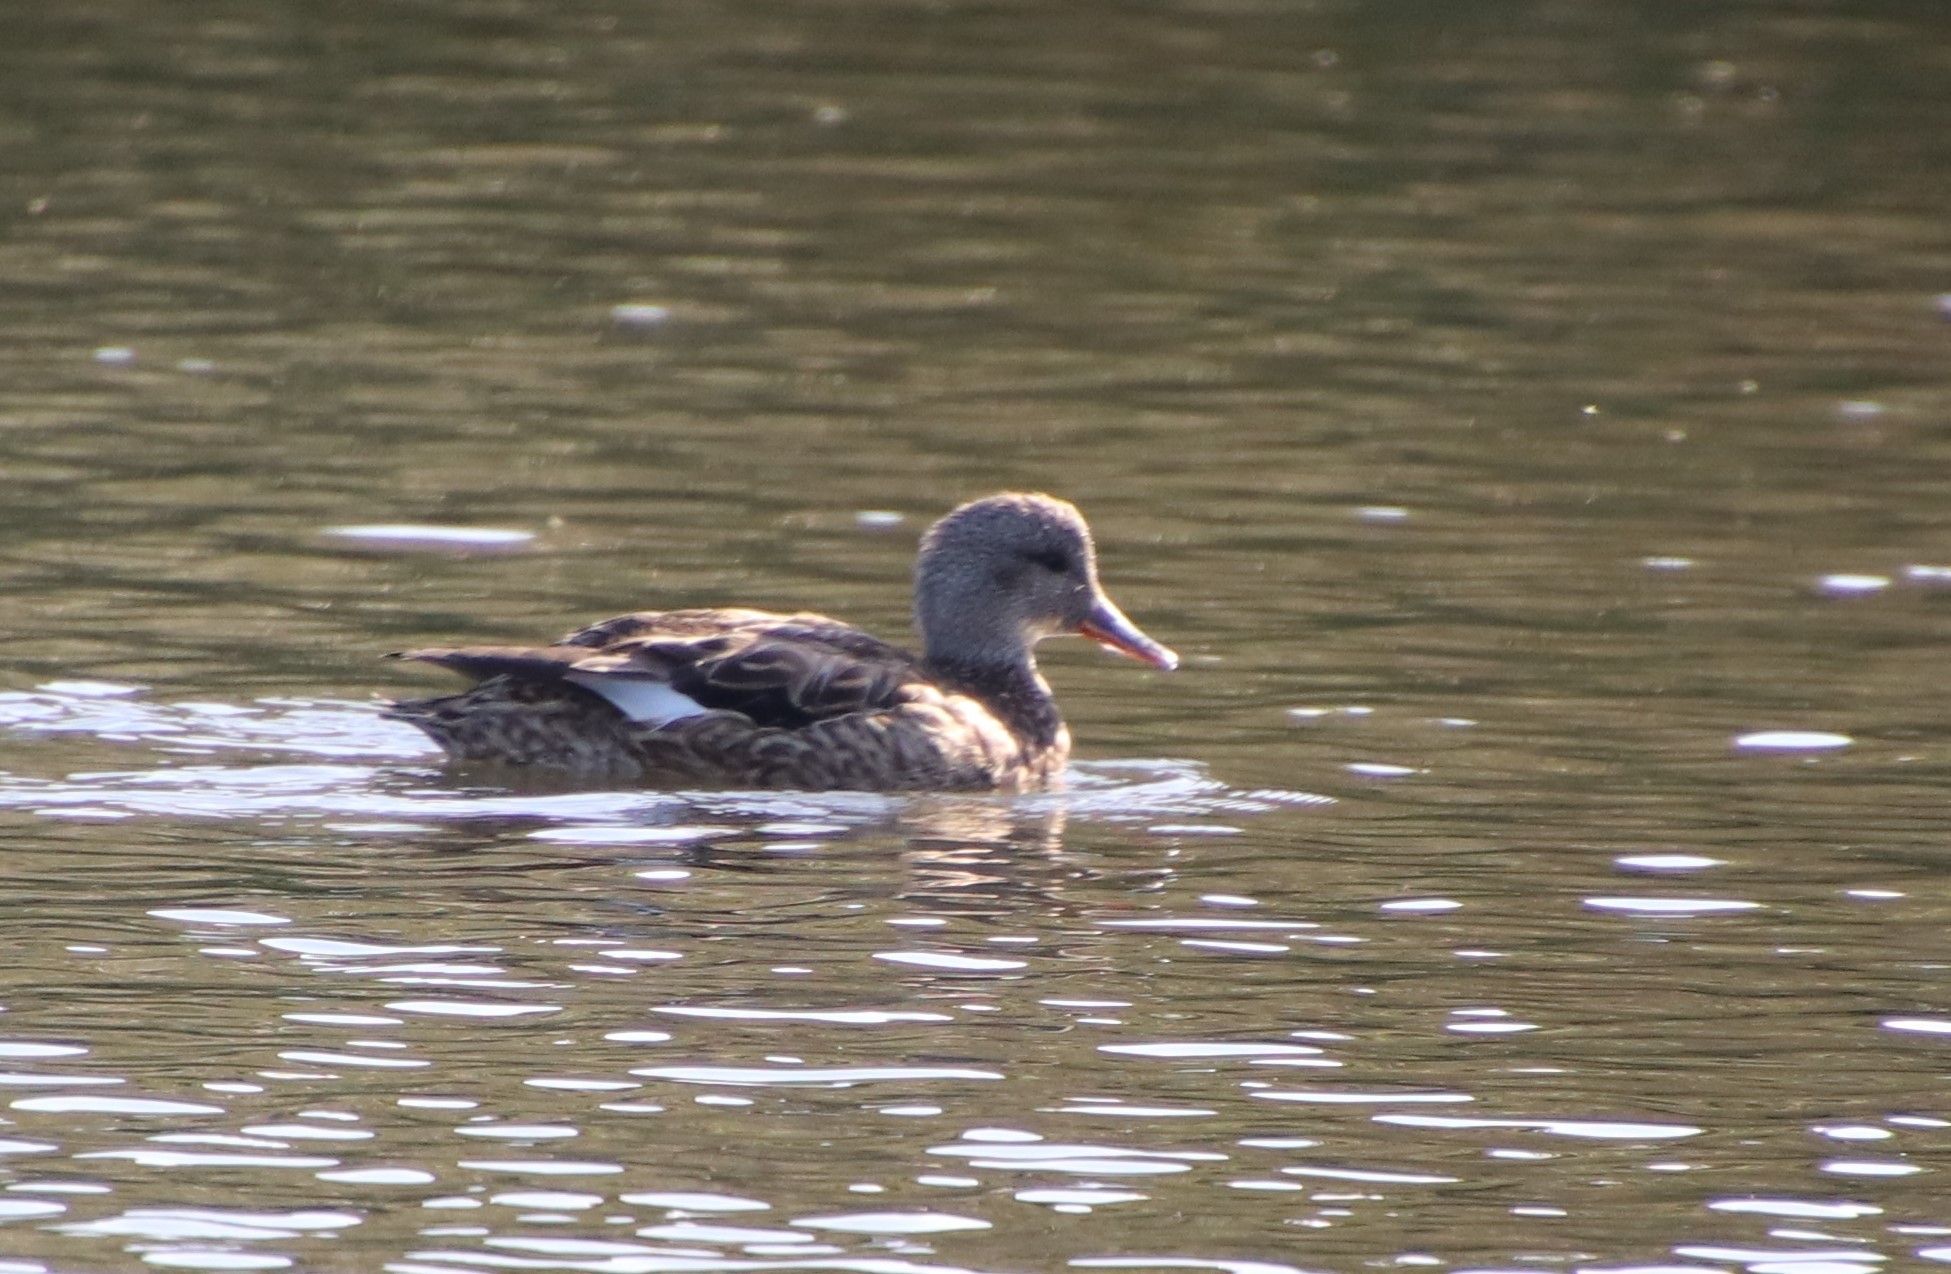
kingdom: Animalia
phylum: Chordata
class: Aves
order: Anseriformes
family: Anatidae
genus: Mareca
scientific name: Mareca strepera
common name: Gadwall
